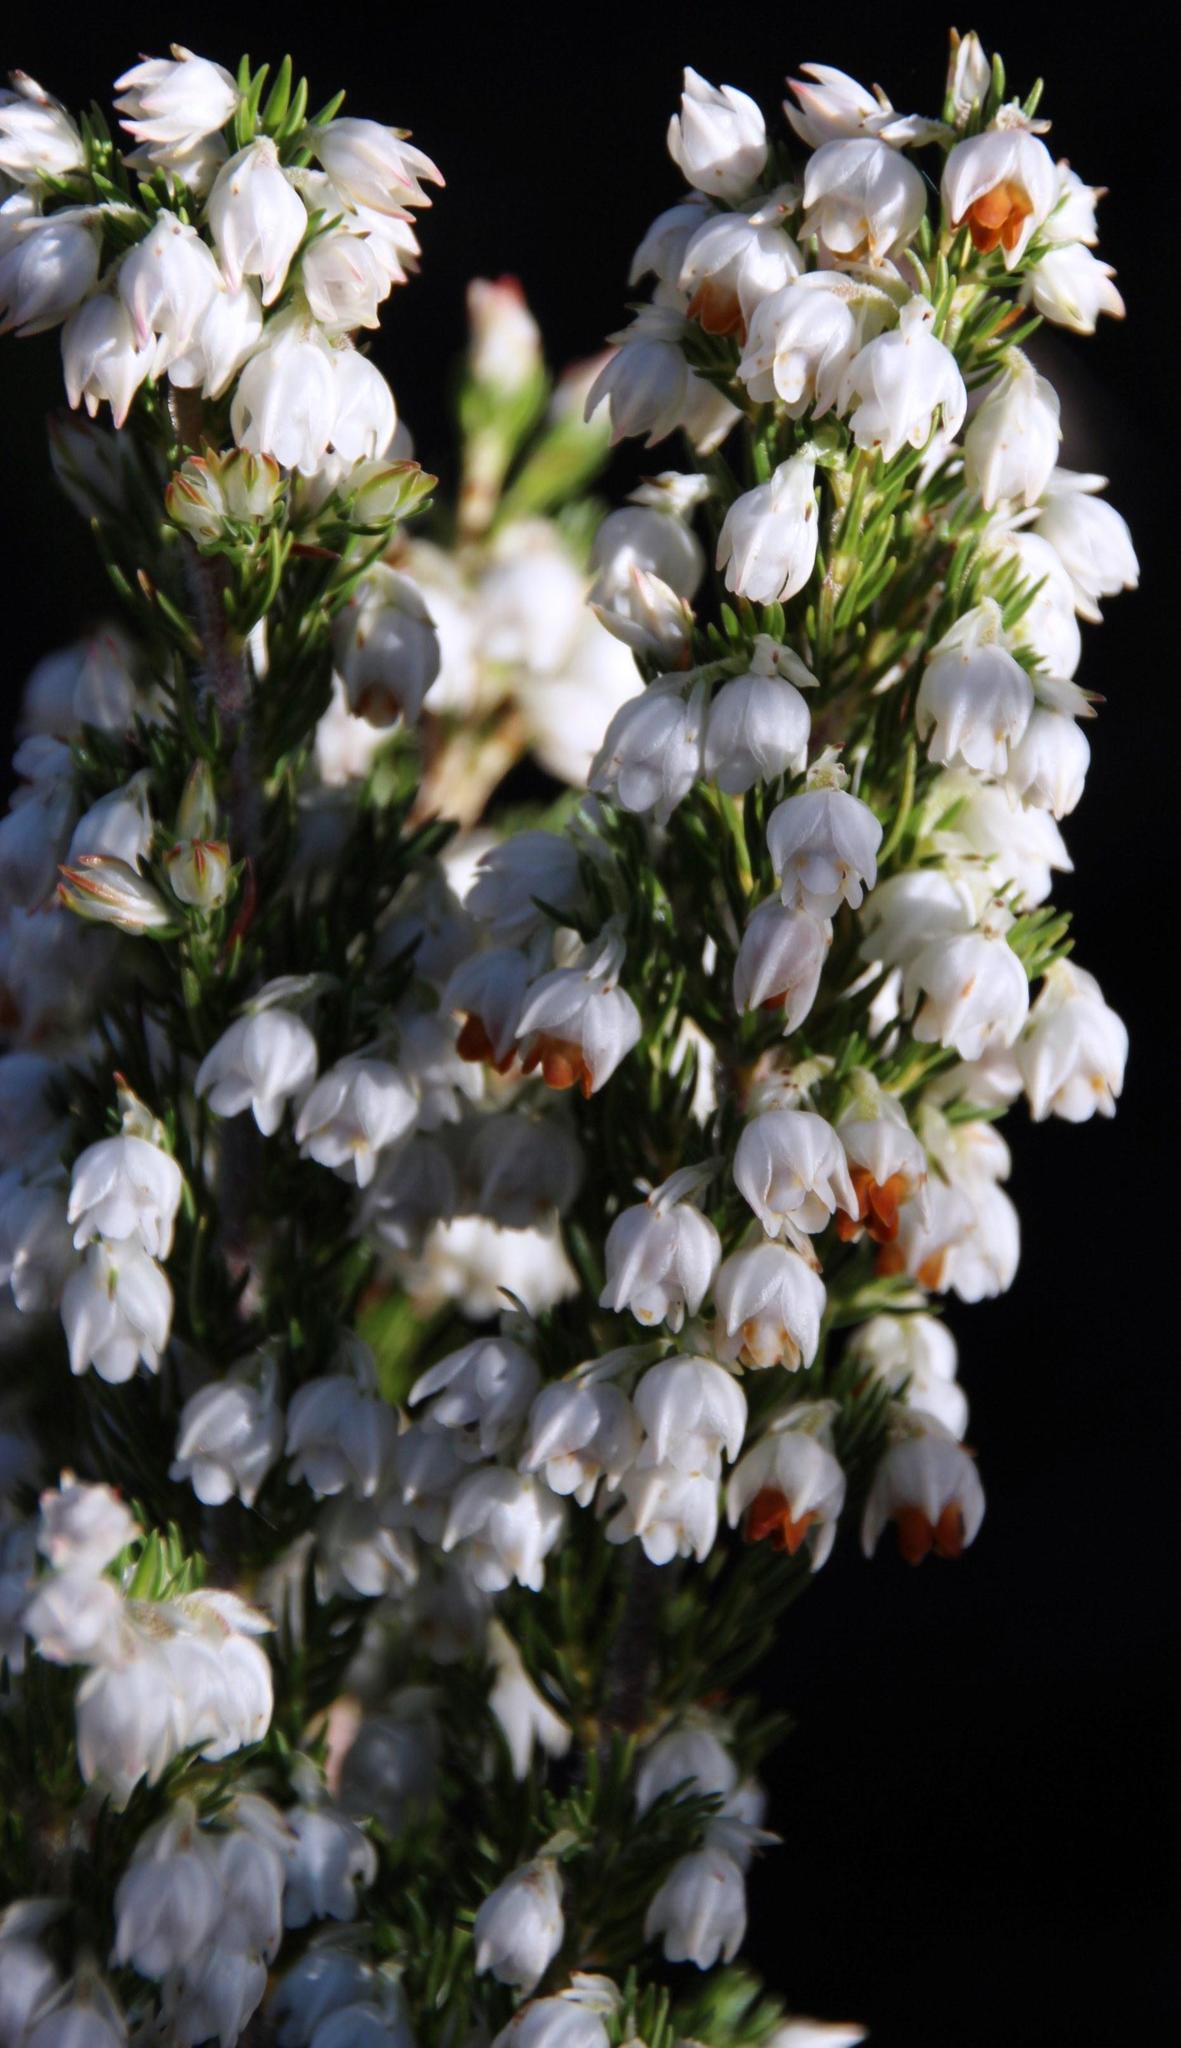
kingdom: Plantae
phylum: Tracheophyta
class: Magnoliopsida
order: Ericales
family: Ericaceae
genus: Erica
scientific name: Erica triflora
